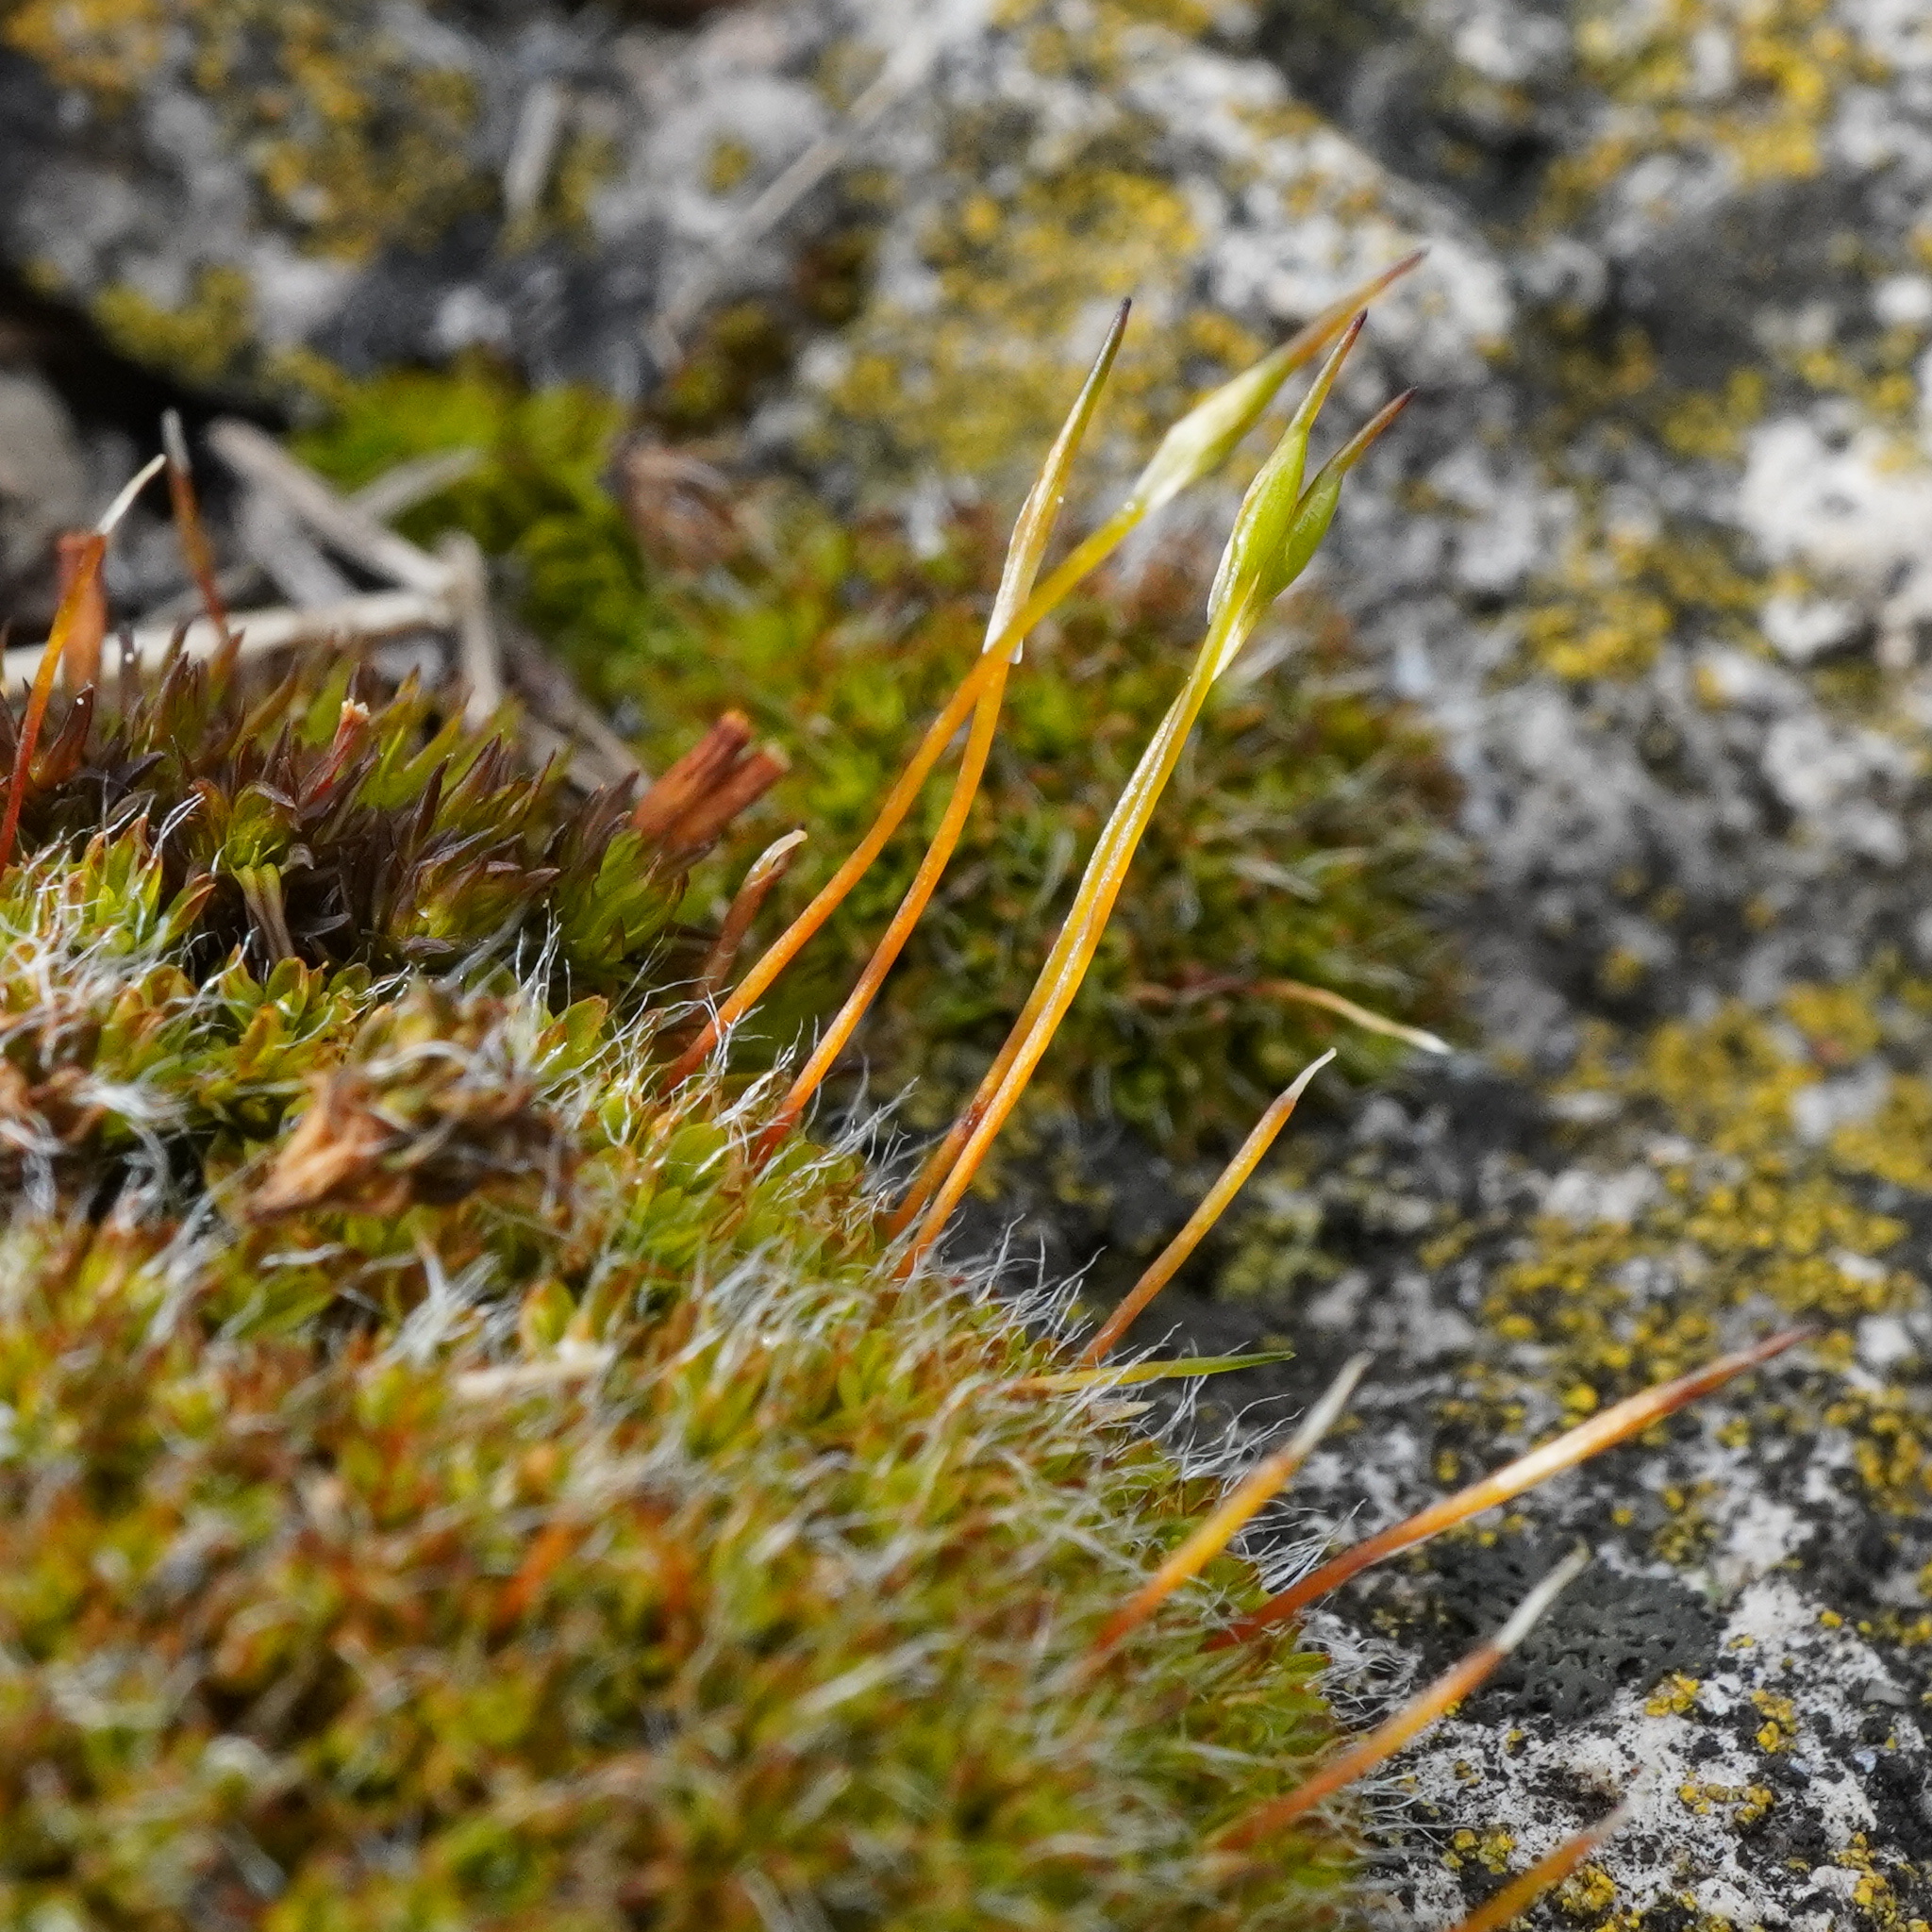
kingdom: Plantae
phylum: Bryophyta
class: Bryopsida
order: Grimmiales
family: Grimmiaceae
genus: Grimmia
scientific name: Grimmia pulvinata
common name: Grey-cushioned grimmia
